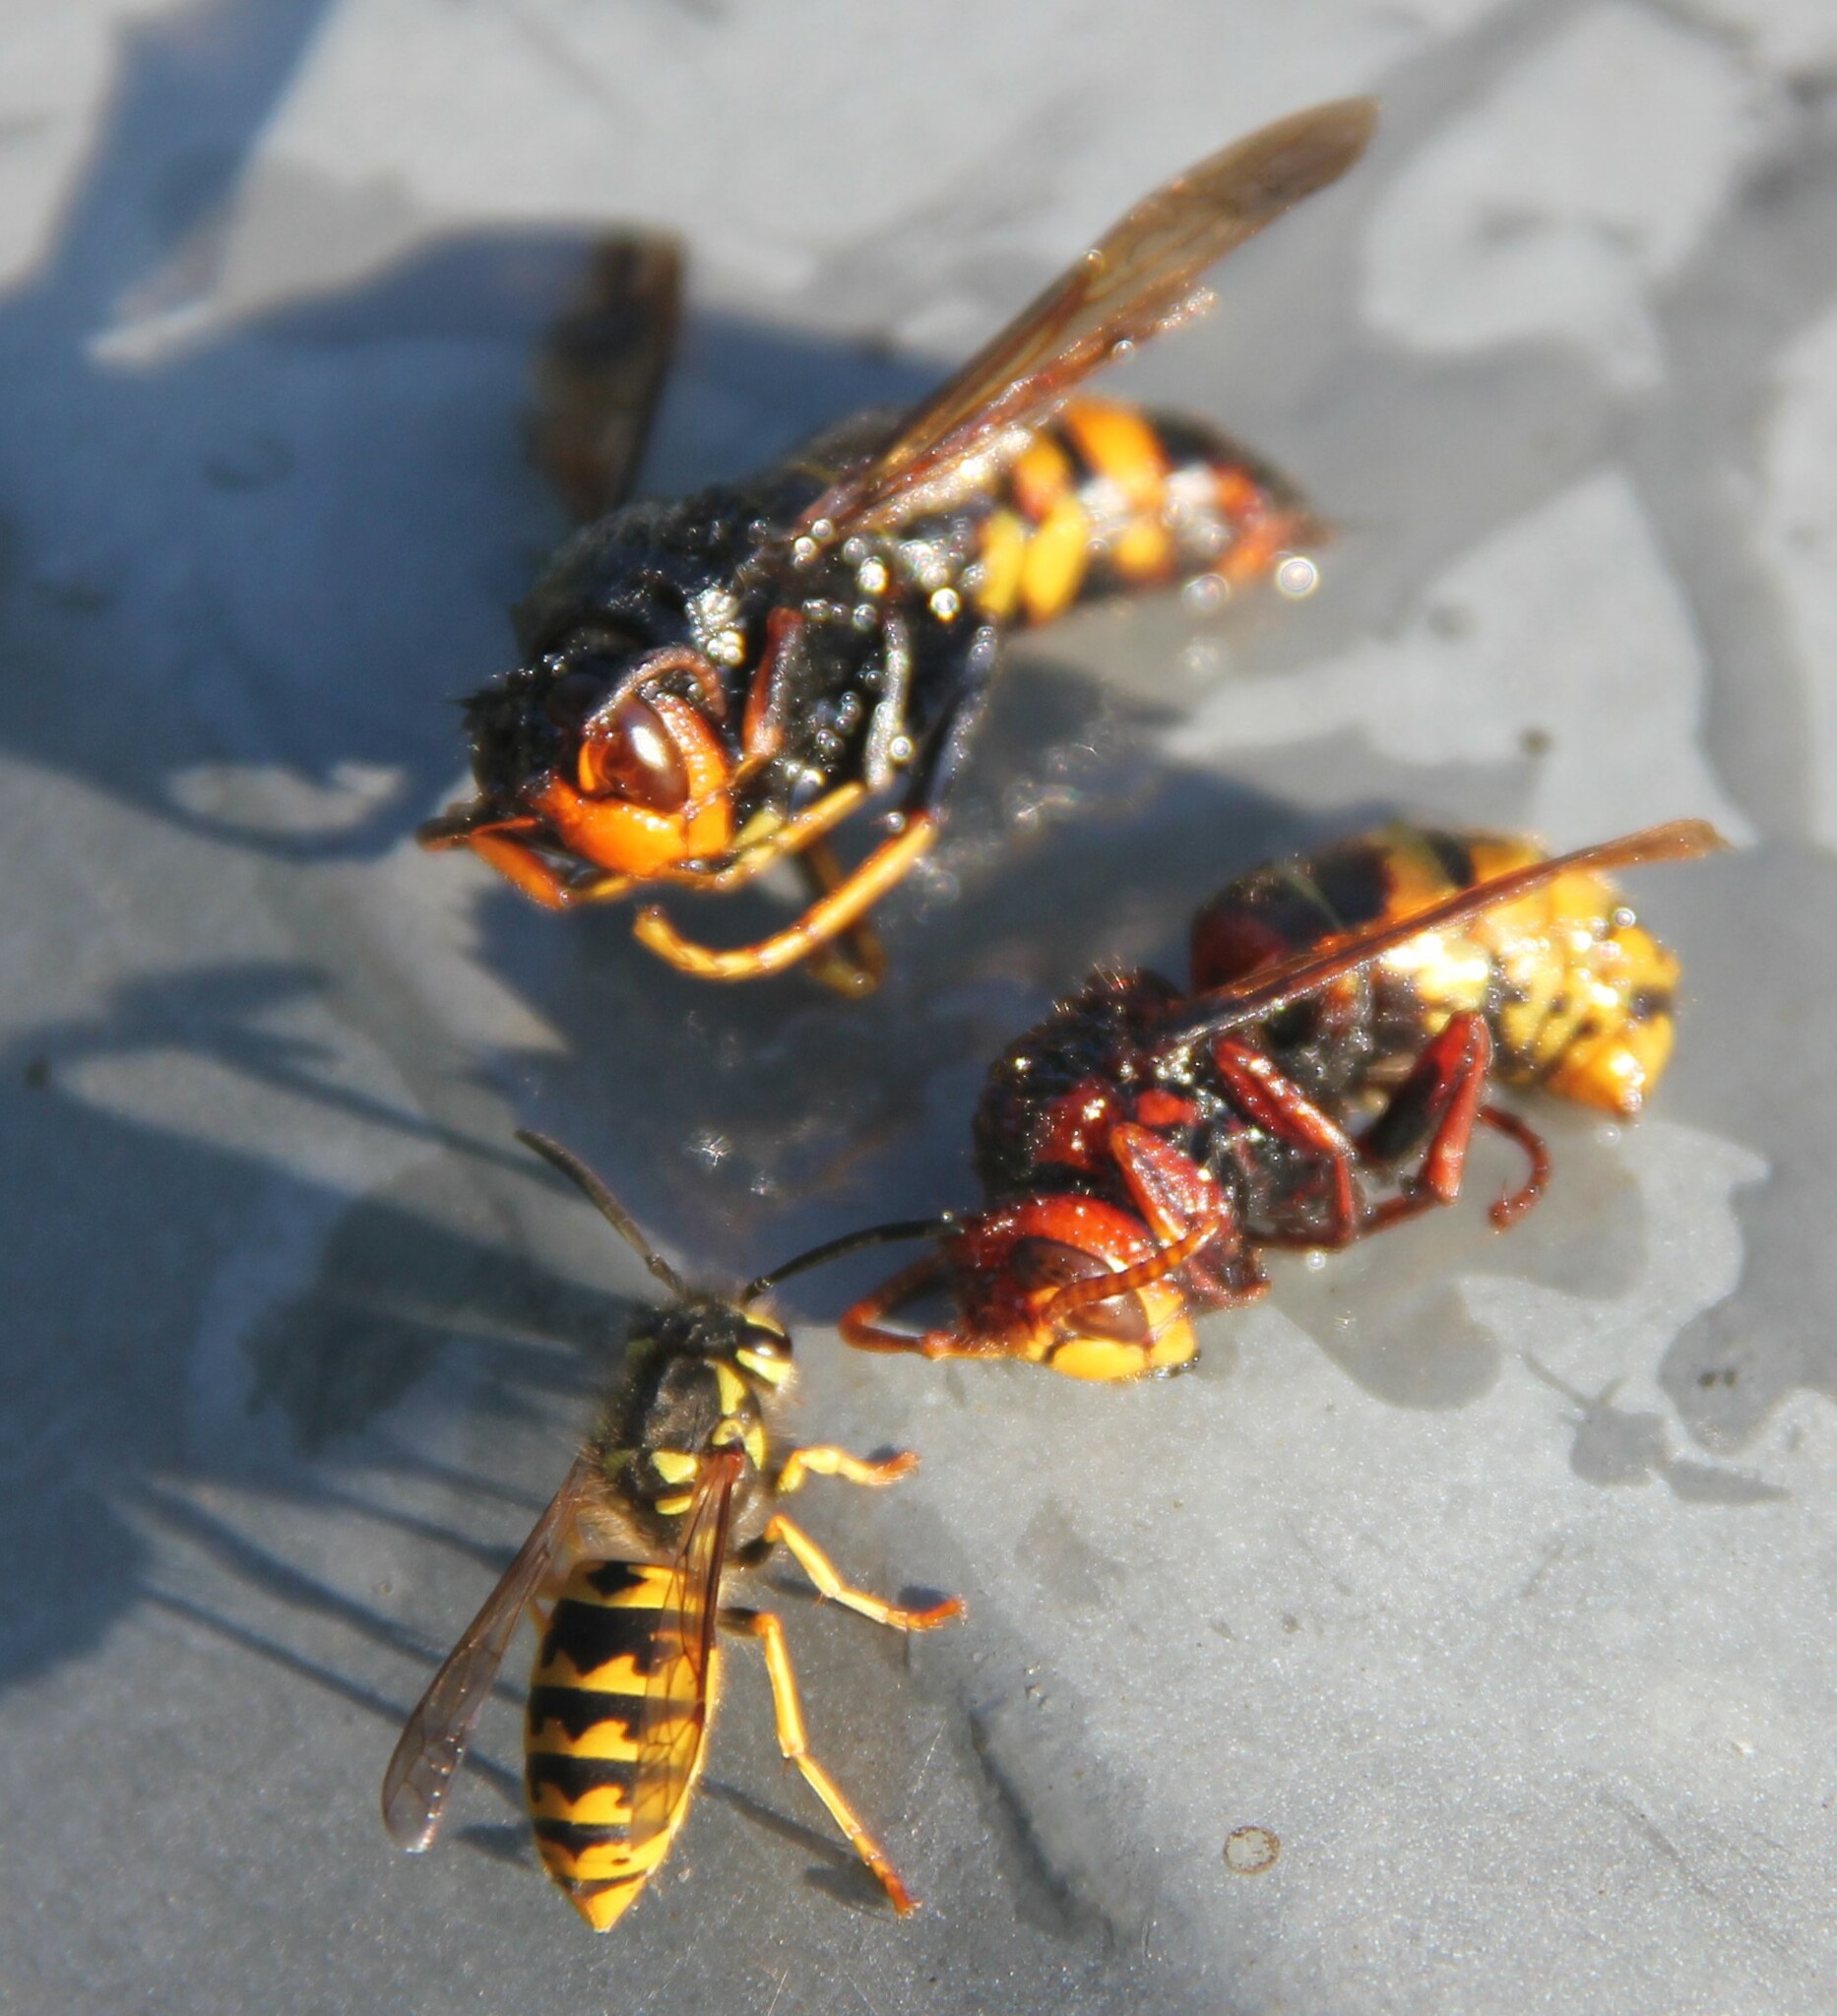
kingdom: Animalia
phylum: Arthropoda
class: Insecta
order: Hymenoptera
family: Vespidae
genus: Vespa
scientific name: Vespa velutina
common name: Asian hornet
